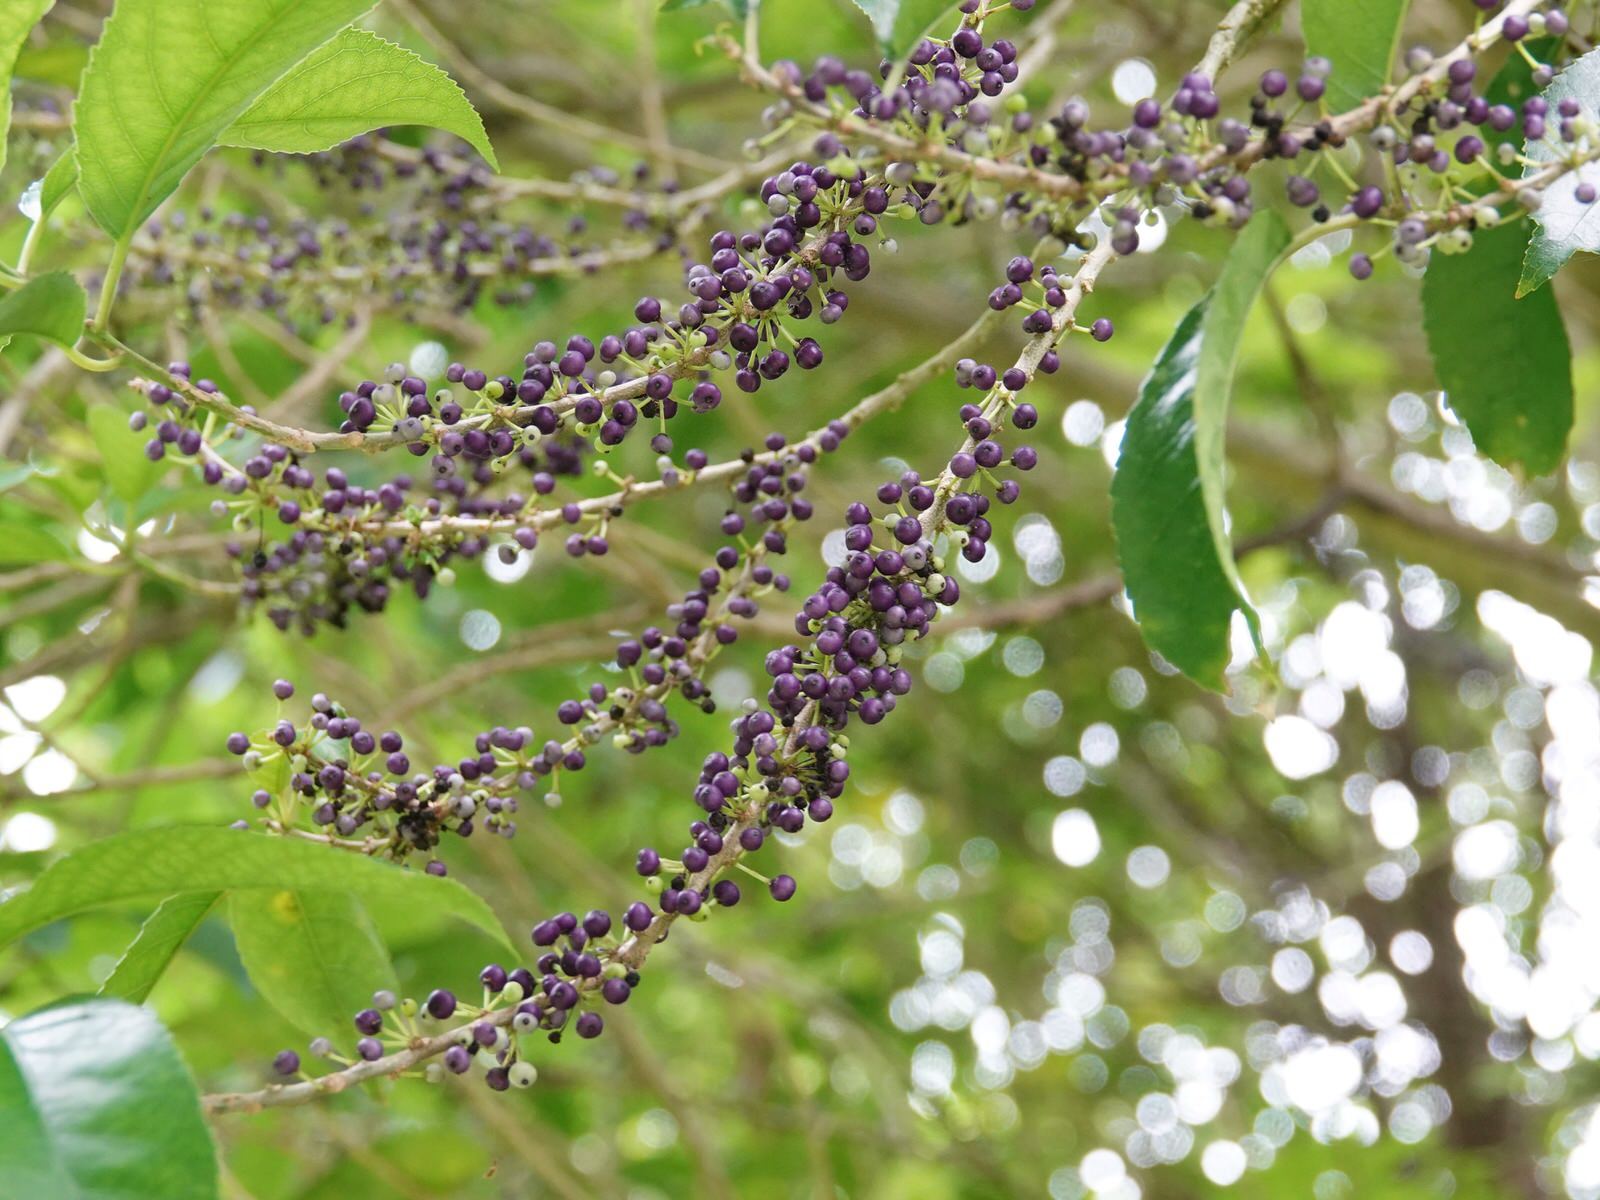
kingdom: Plantae
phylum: Tracheophyta
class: Magnoliopsida
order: Malpighiales
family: Violaceae
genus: Melicytus
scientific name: Melicytus ramiflorus
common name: Mahoe
